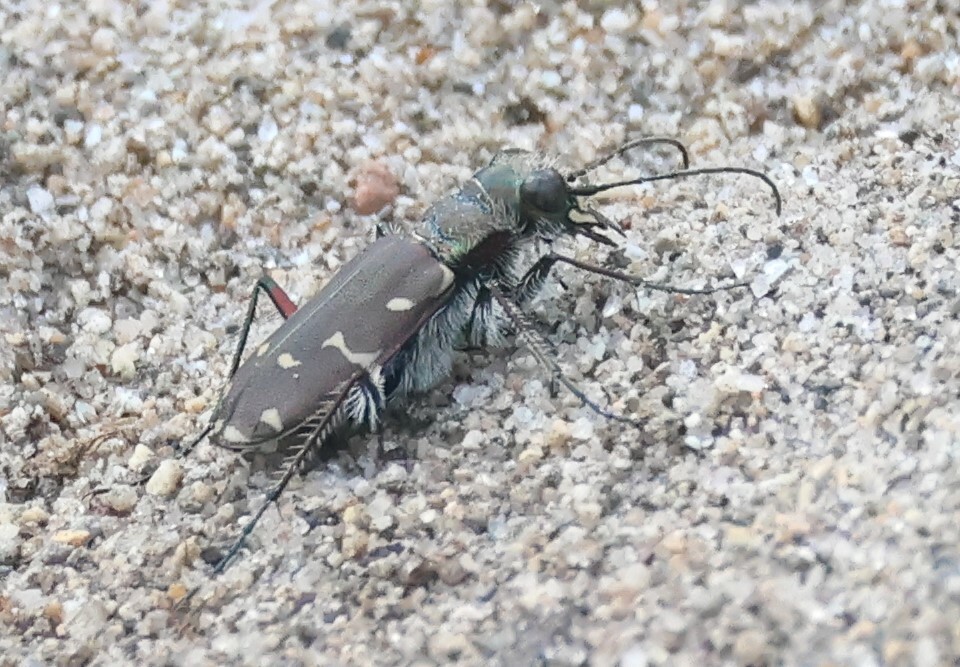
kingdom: Animalia
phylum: Arthropoda
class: Insecta
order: Coleoptera
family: Carabidae
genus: Cicindela
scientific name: Cicindela duodecimguttata
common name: Twelve-spotted tiger beetle
